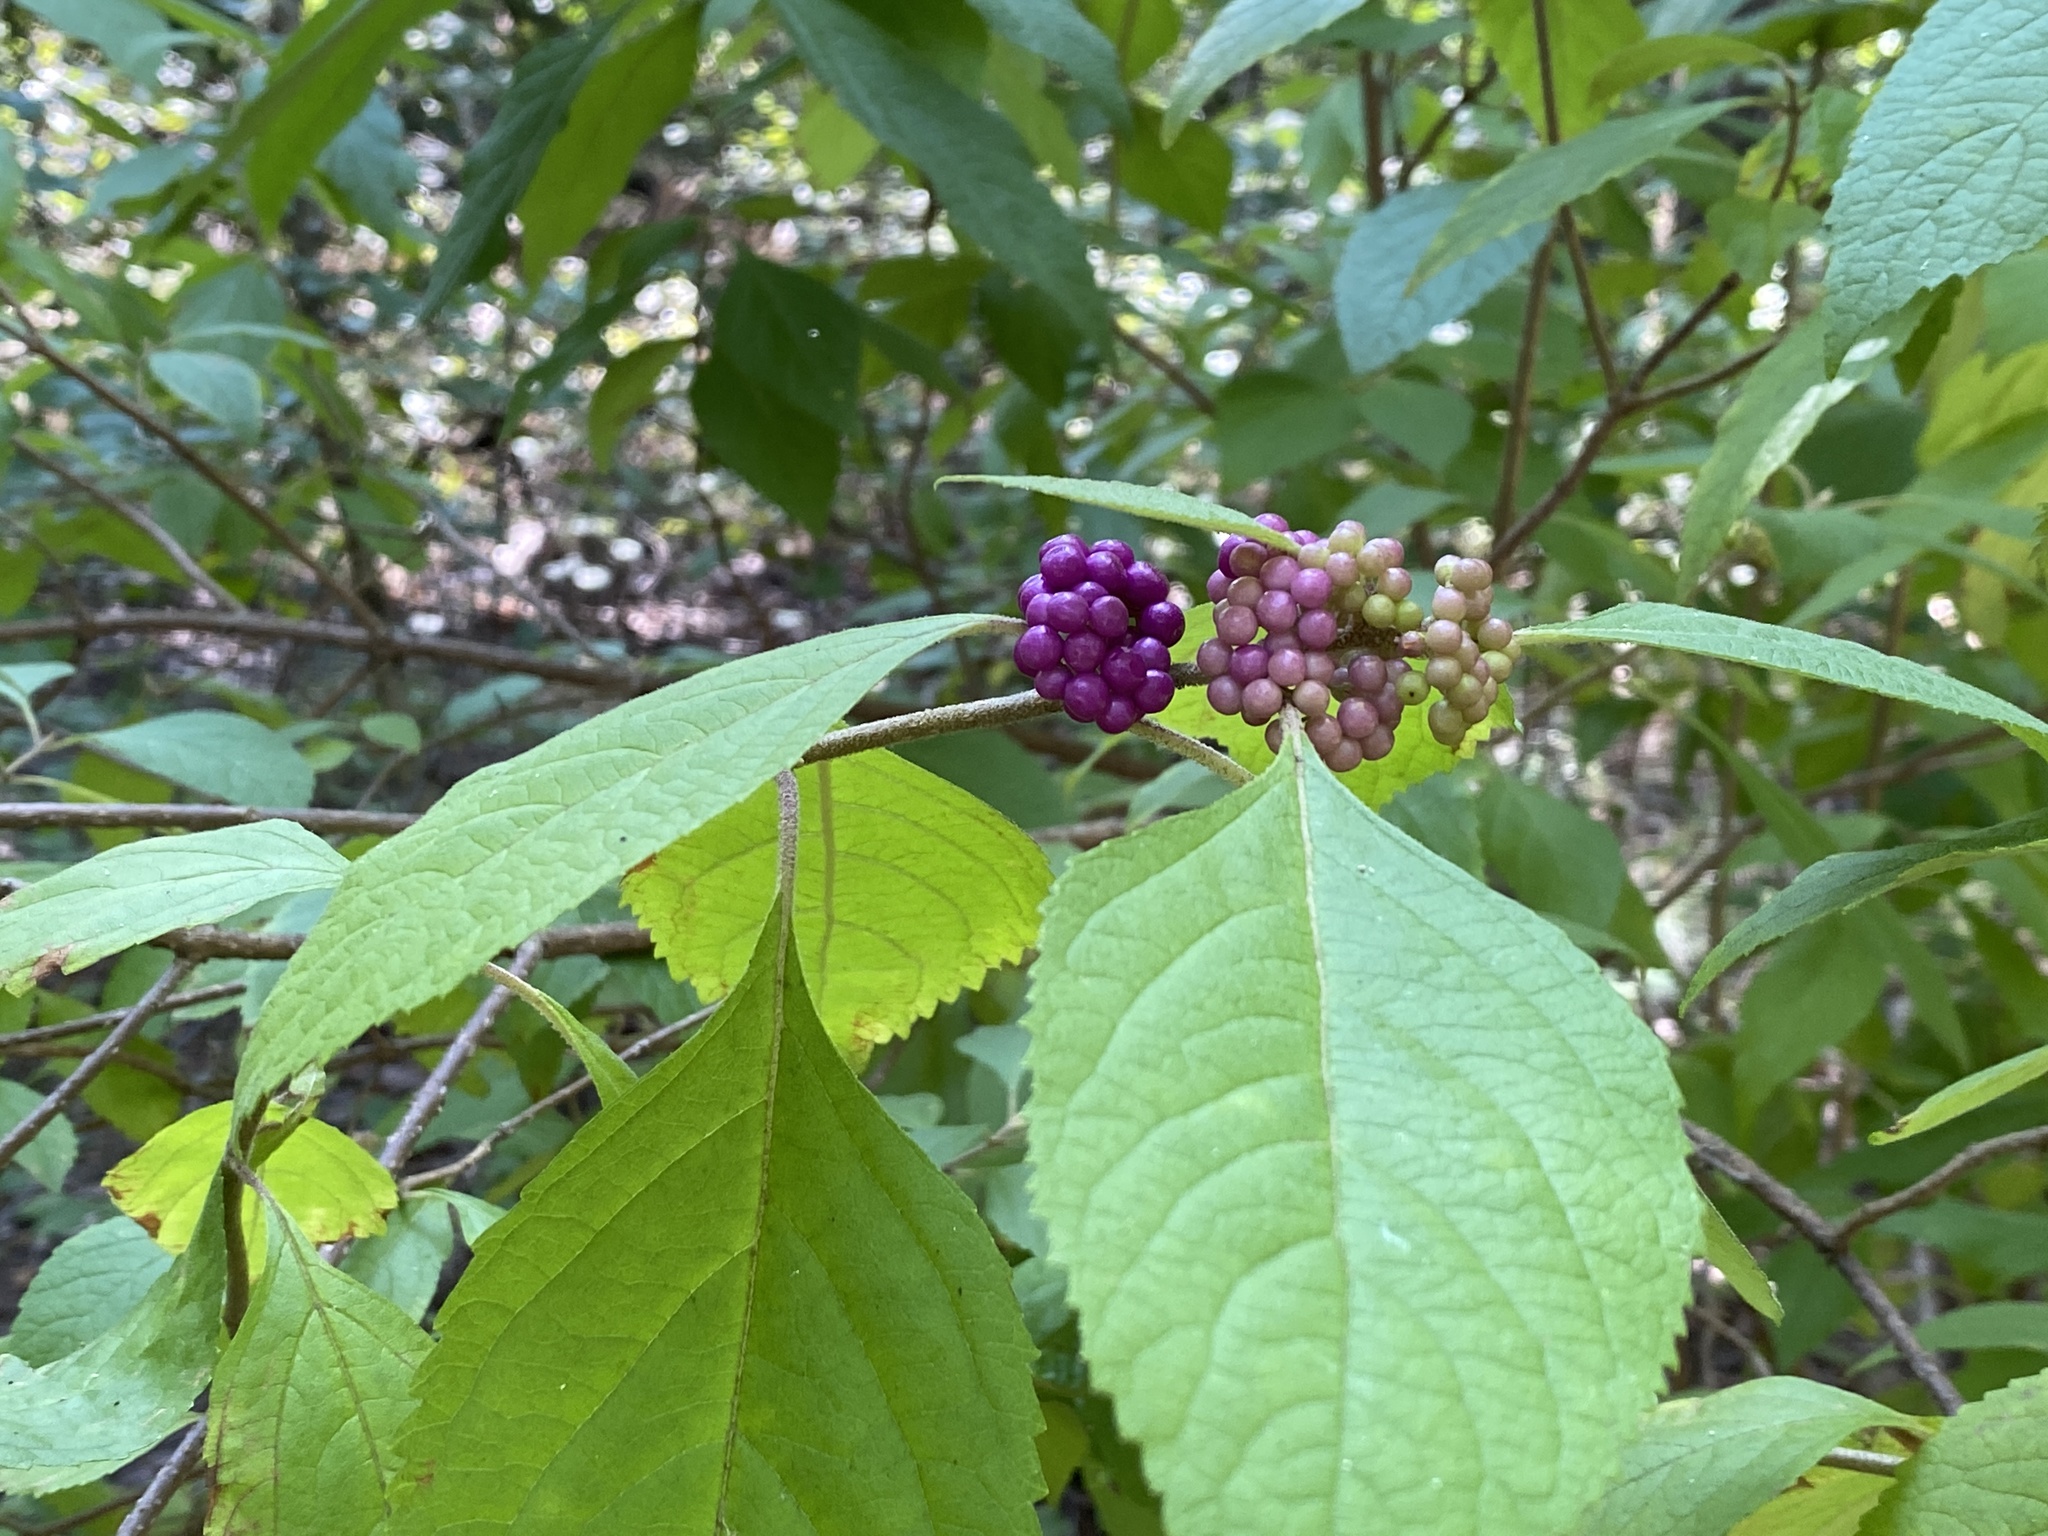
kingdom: Plantae
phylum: Tracheophyta
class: Magnoliopsida
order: Lamiales
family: Lamiaceae
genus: Callicarpa
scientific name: Callicarpa americana
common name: American beautyberry
